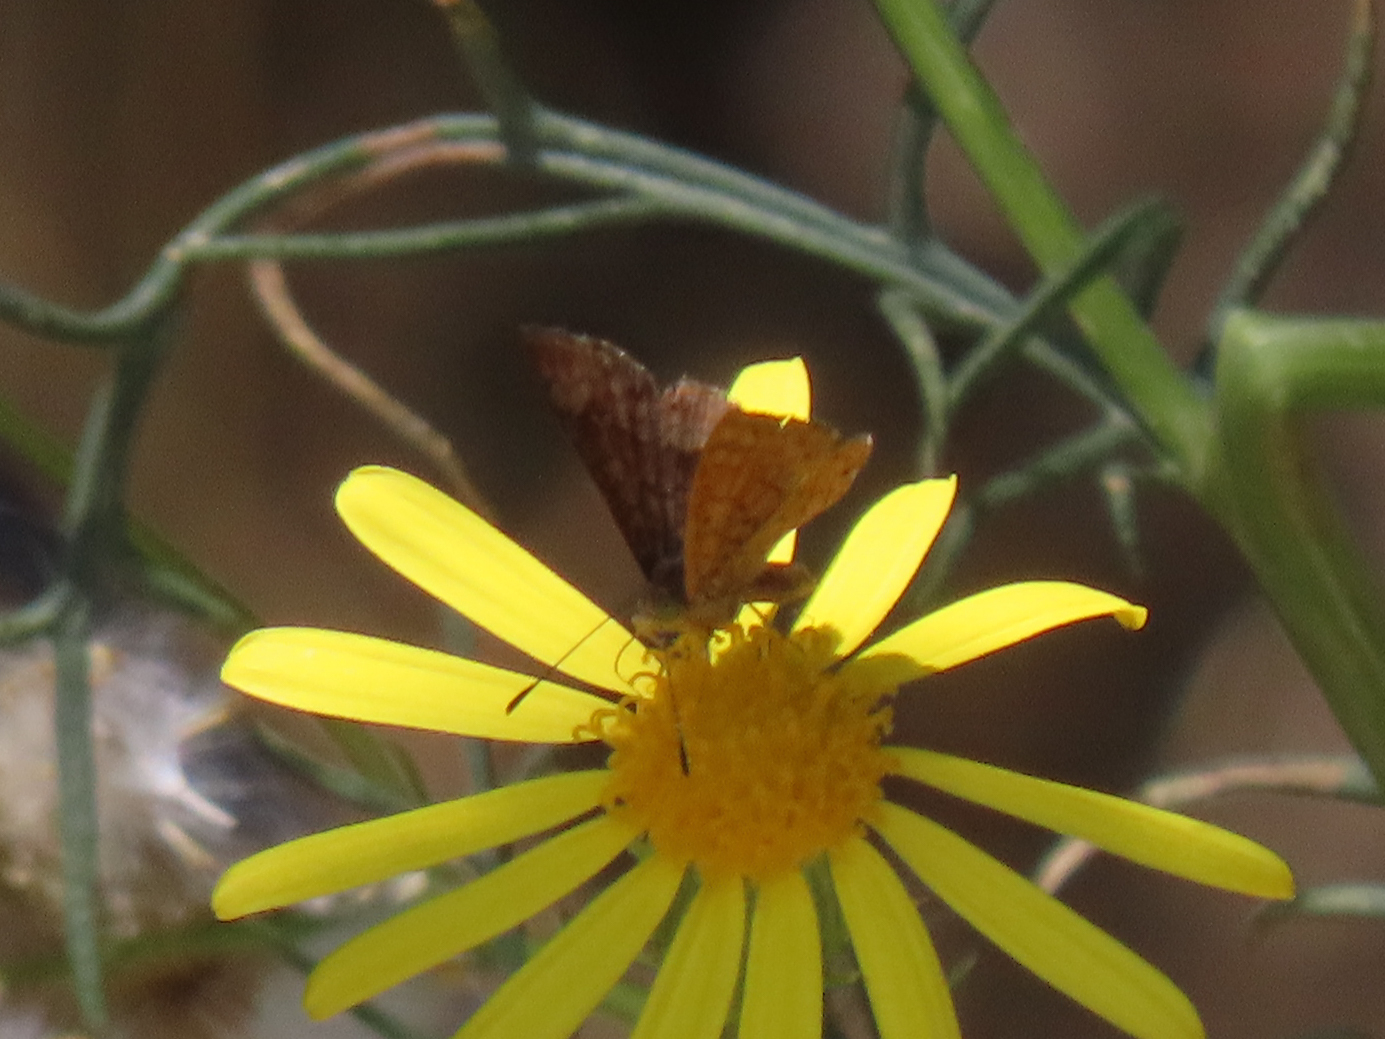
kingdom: Animalia
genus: Calephelis
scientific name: Calephelis nemesis
